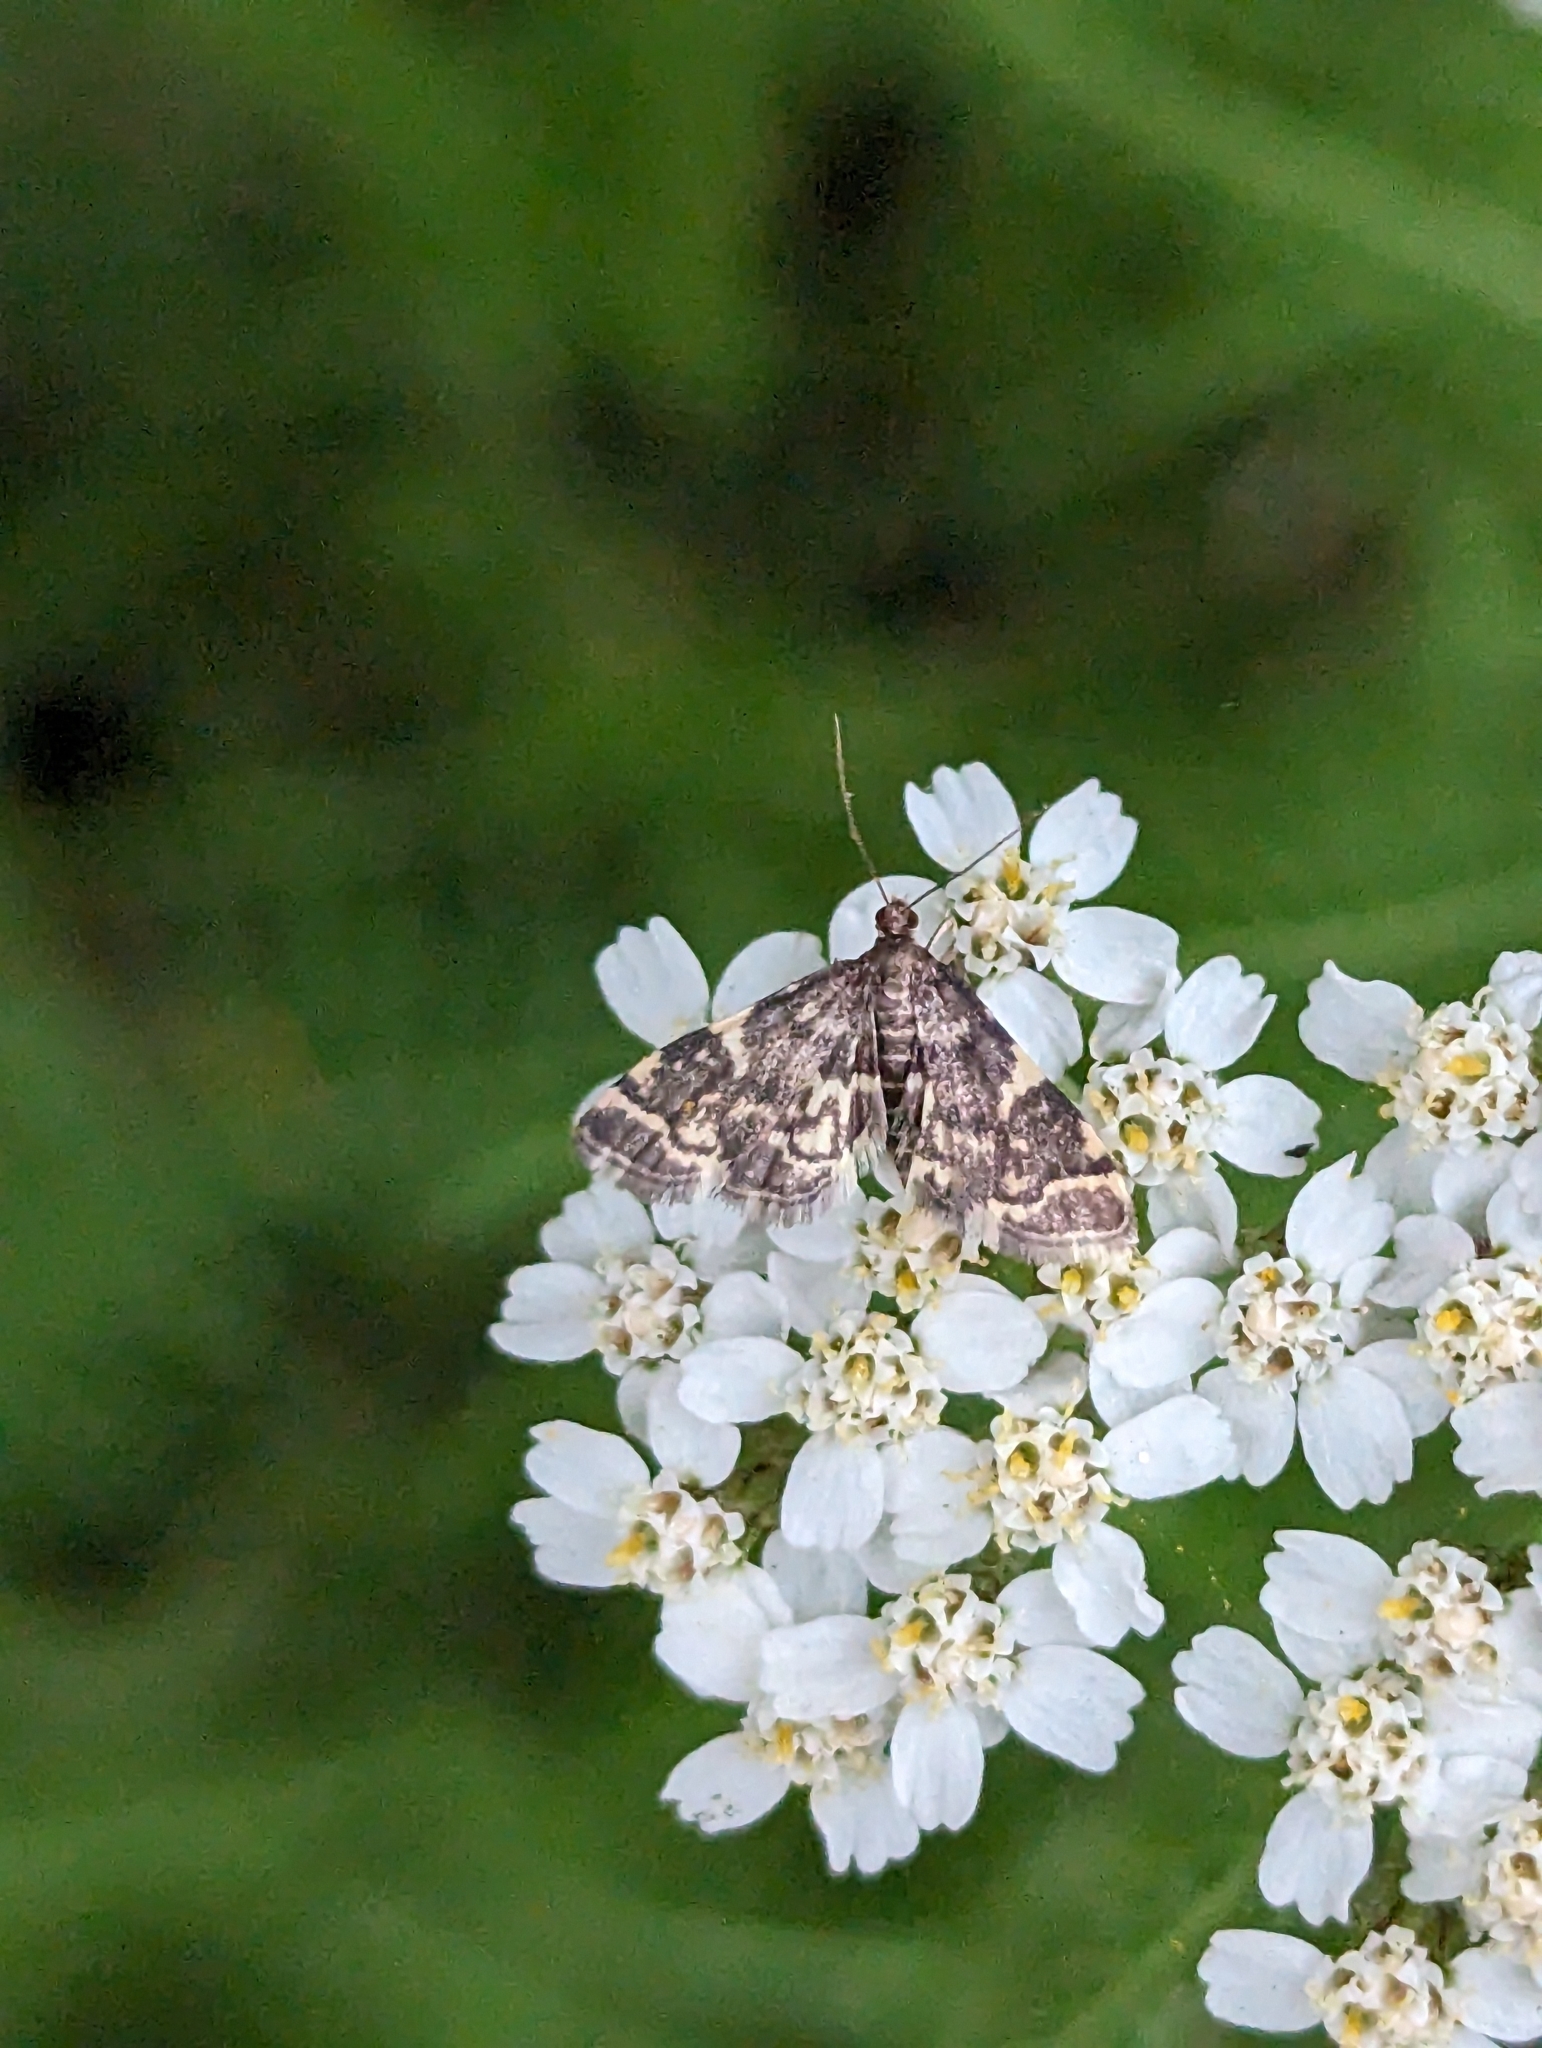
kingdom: Animalia
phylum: Arthropoda
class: Insecta
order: Lepidoptera
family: Crambidae
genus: Anageshna
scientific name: Anageshna primordialis
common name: Yellow-spotted webworm moth
